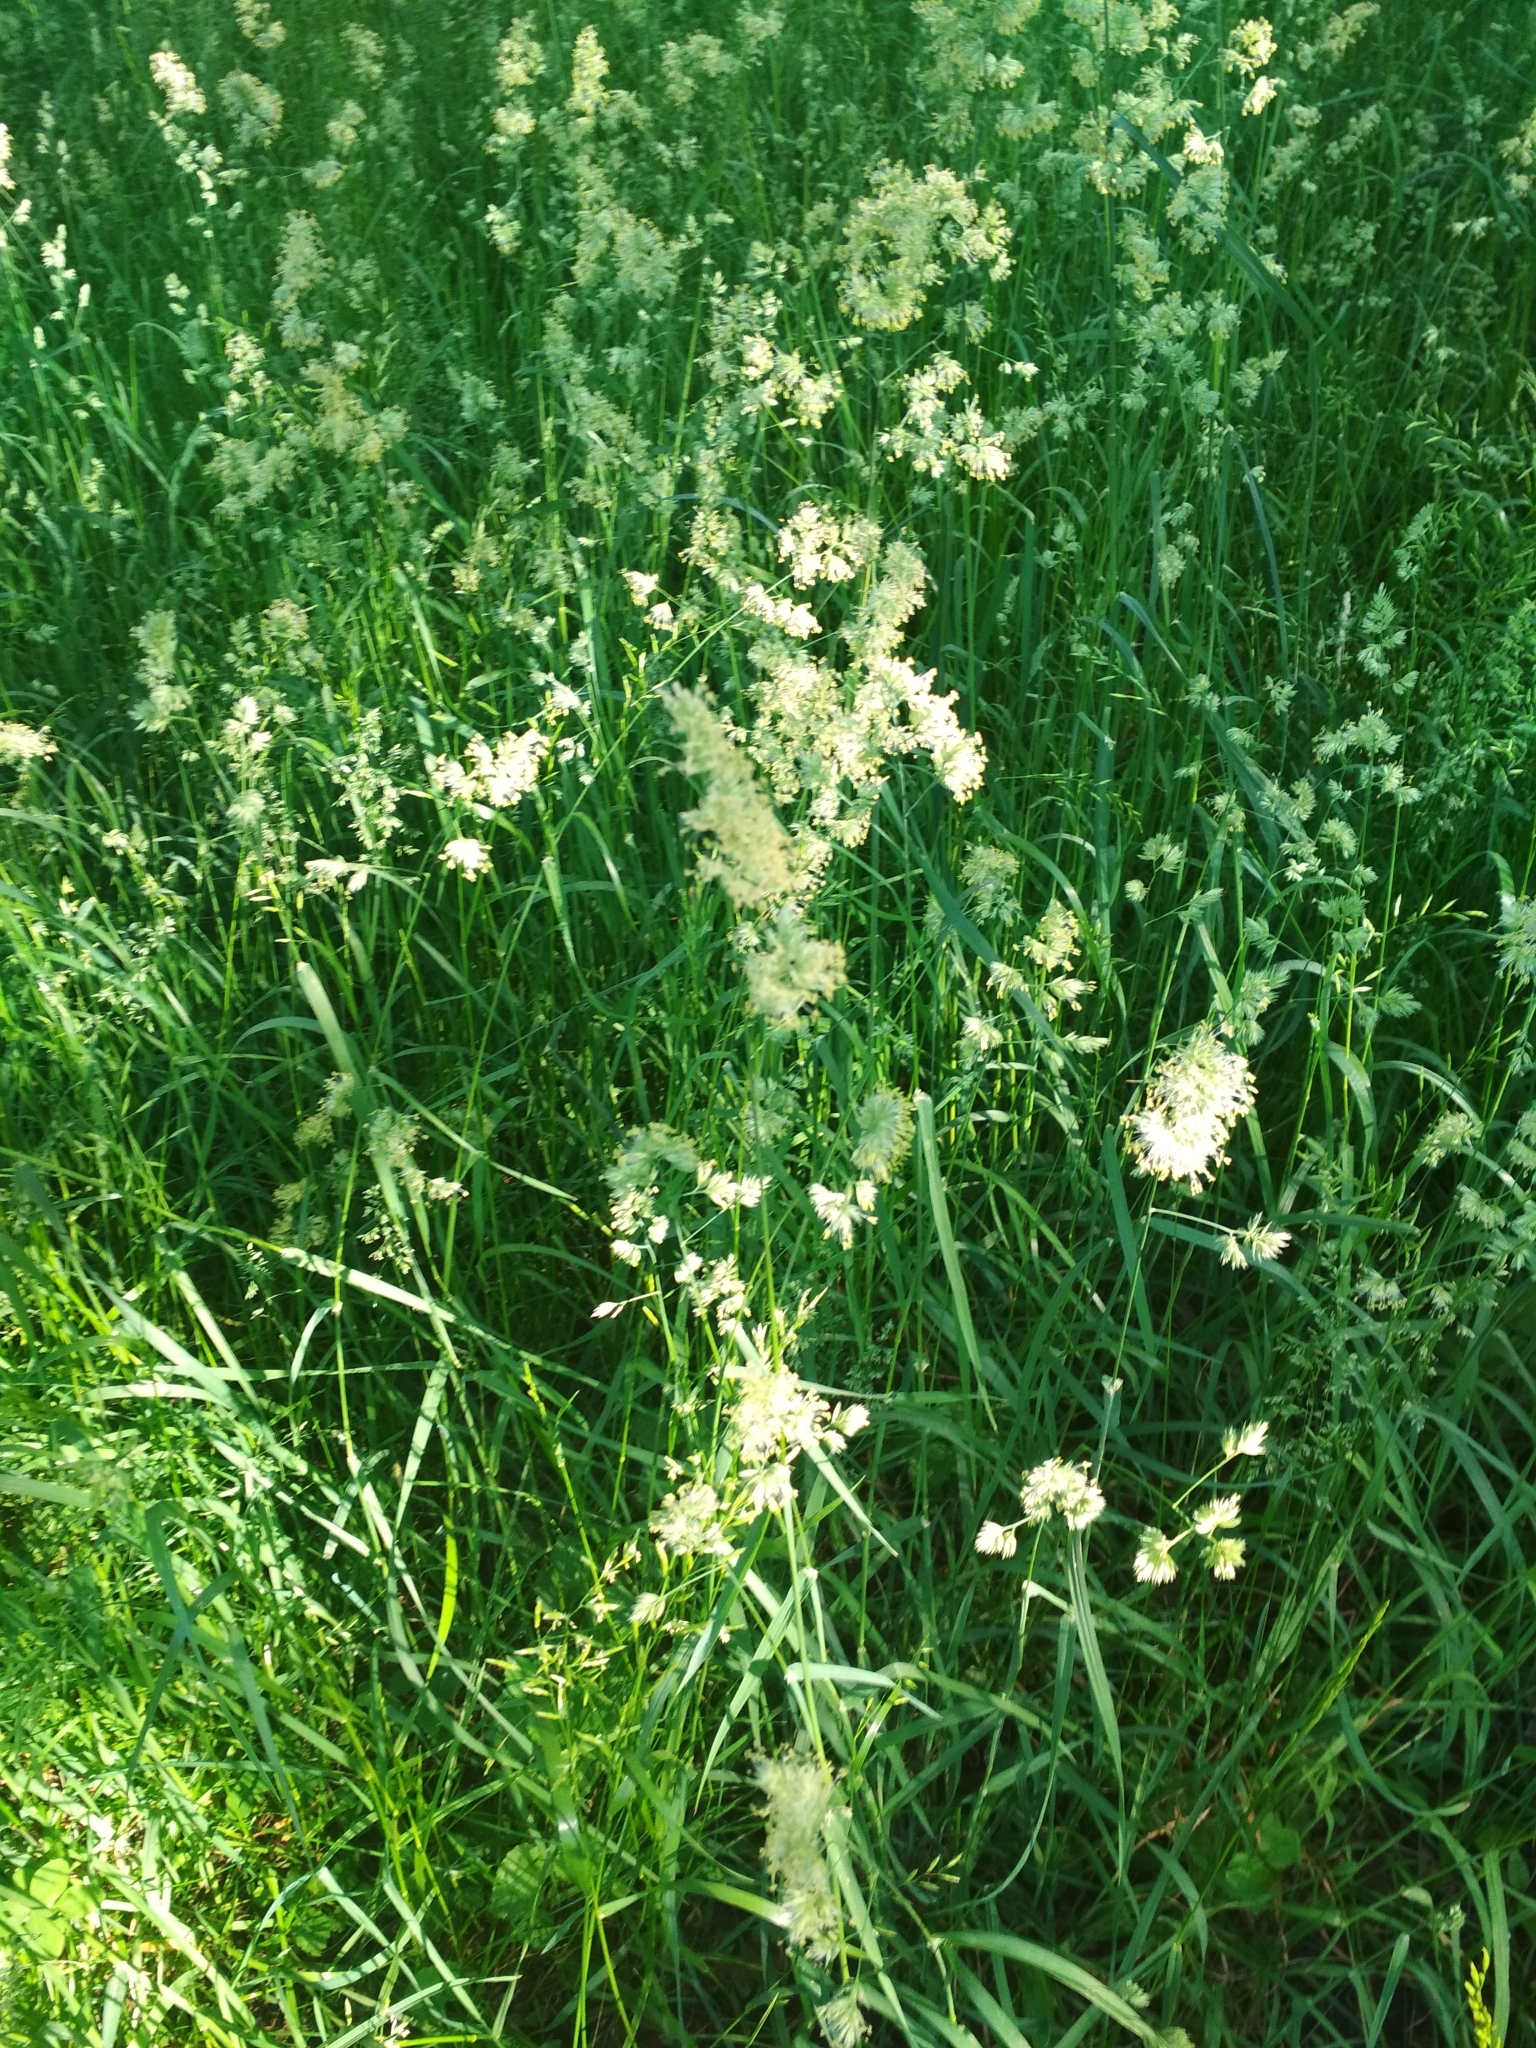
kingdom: Plantae
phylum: Tracheophyta
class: Liliopsida
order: Poales
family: Poaceae
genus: Dactylis
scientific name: Dactylis glomerata
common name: Orchardgrass
